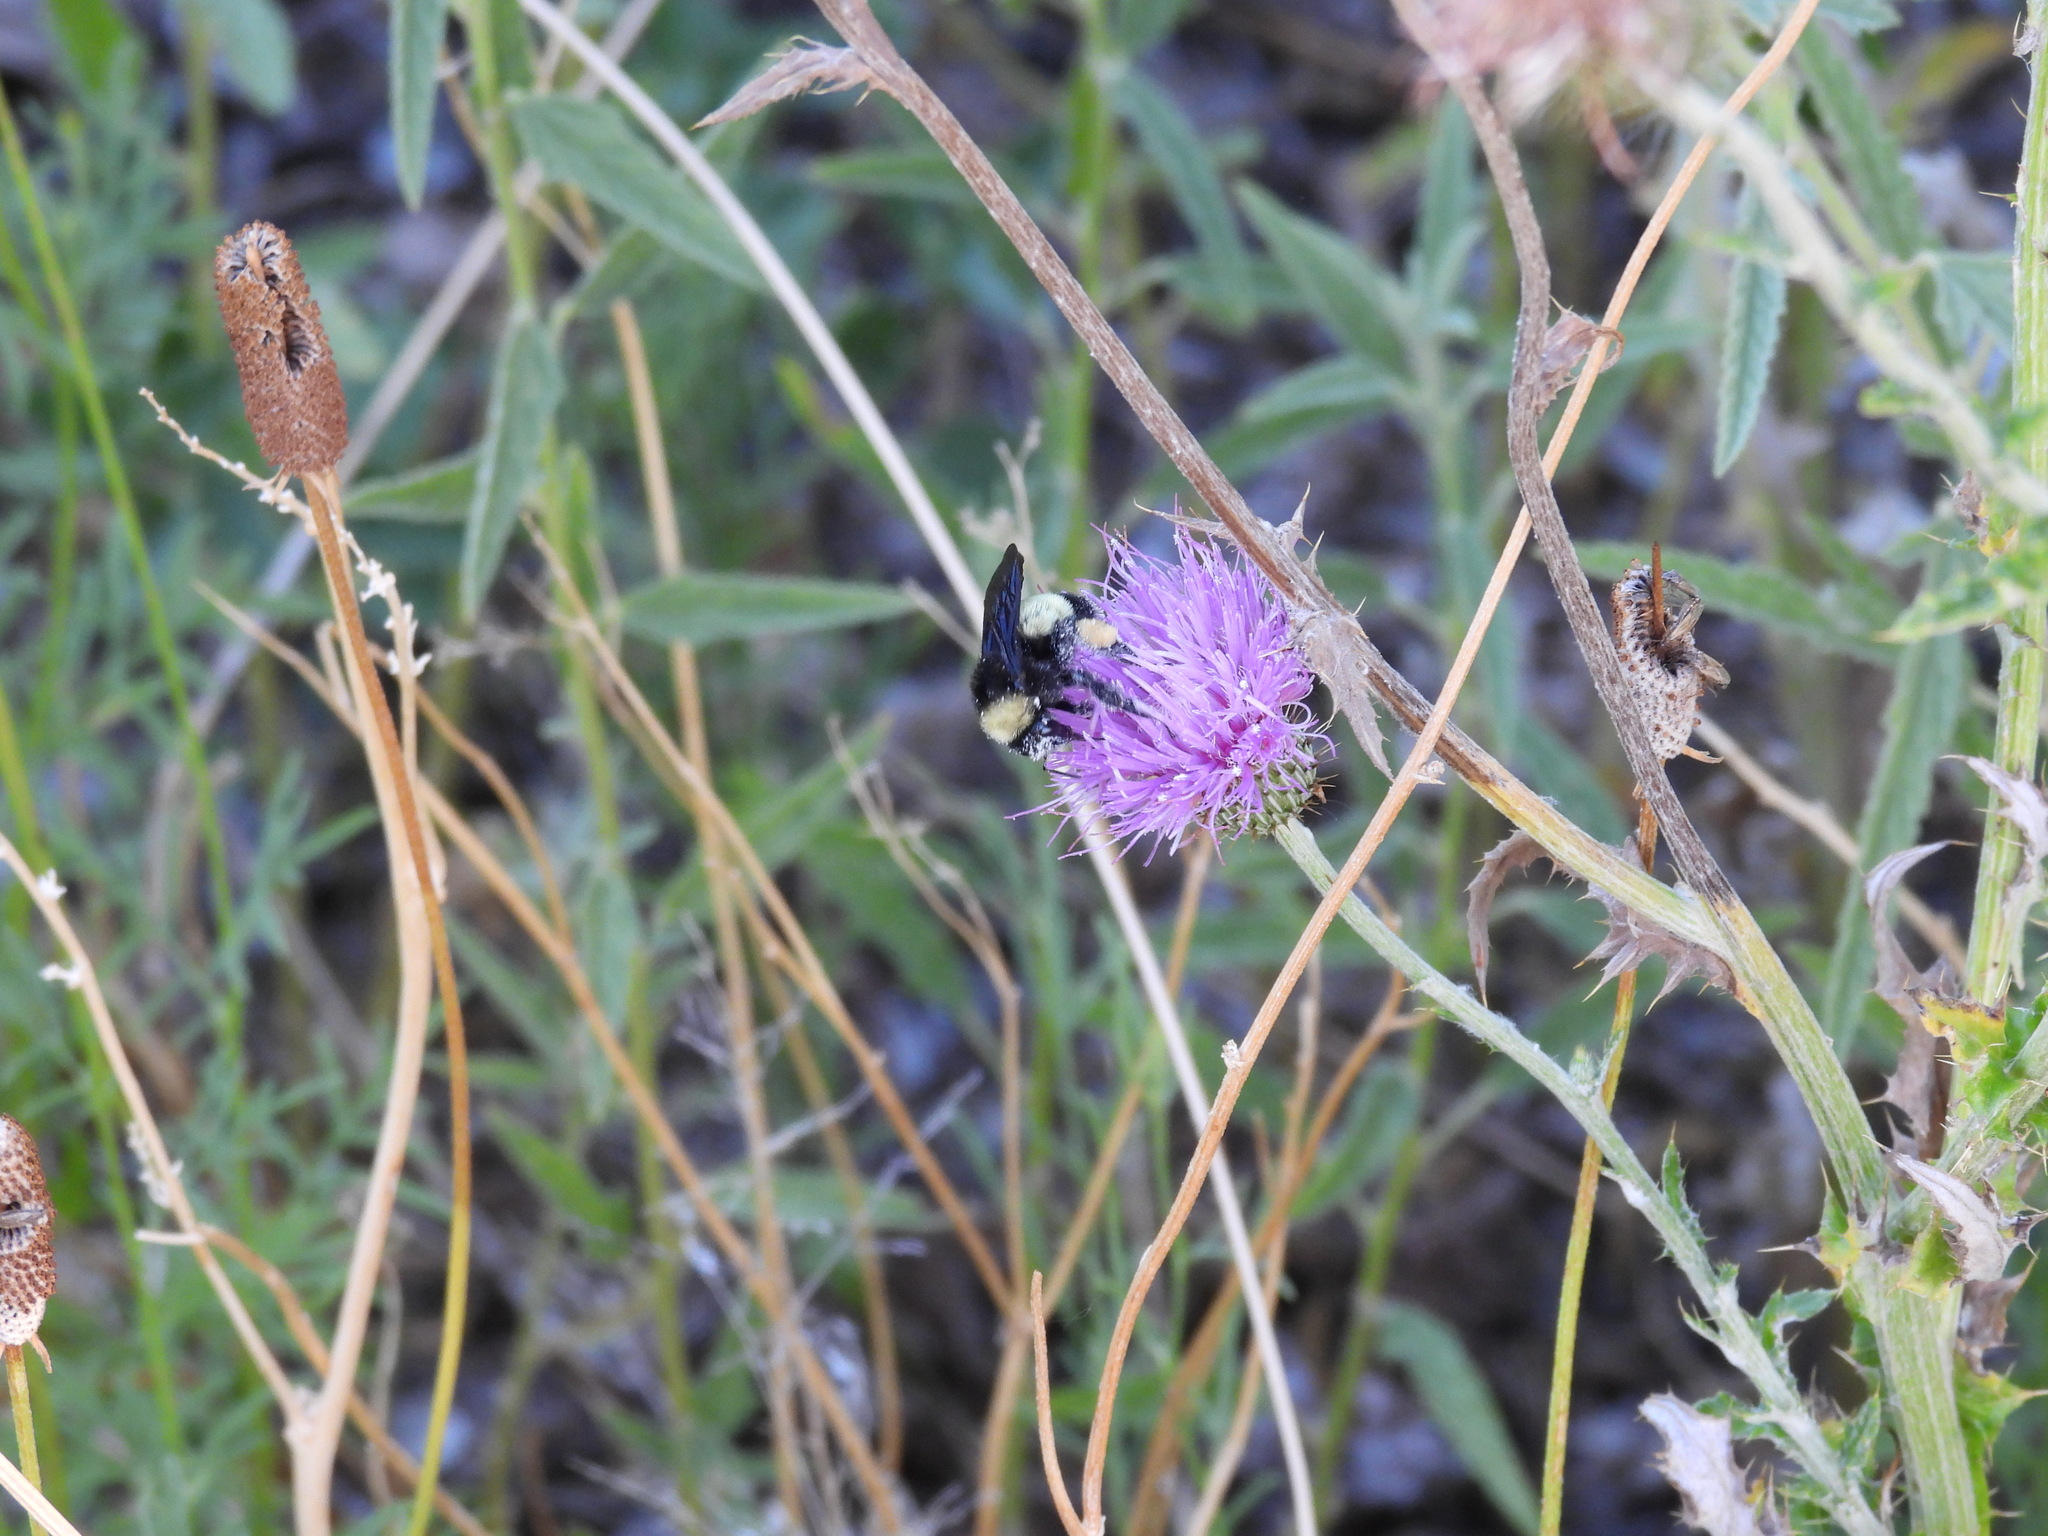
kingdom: Animalia
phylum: Arthropoda
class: Insecta
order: Hymenoptera
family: Apidae
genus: Bombus
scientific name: Bombus pensylvanicus
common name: Bumble bee
